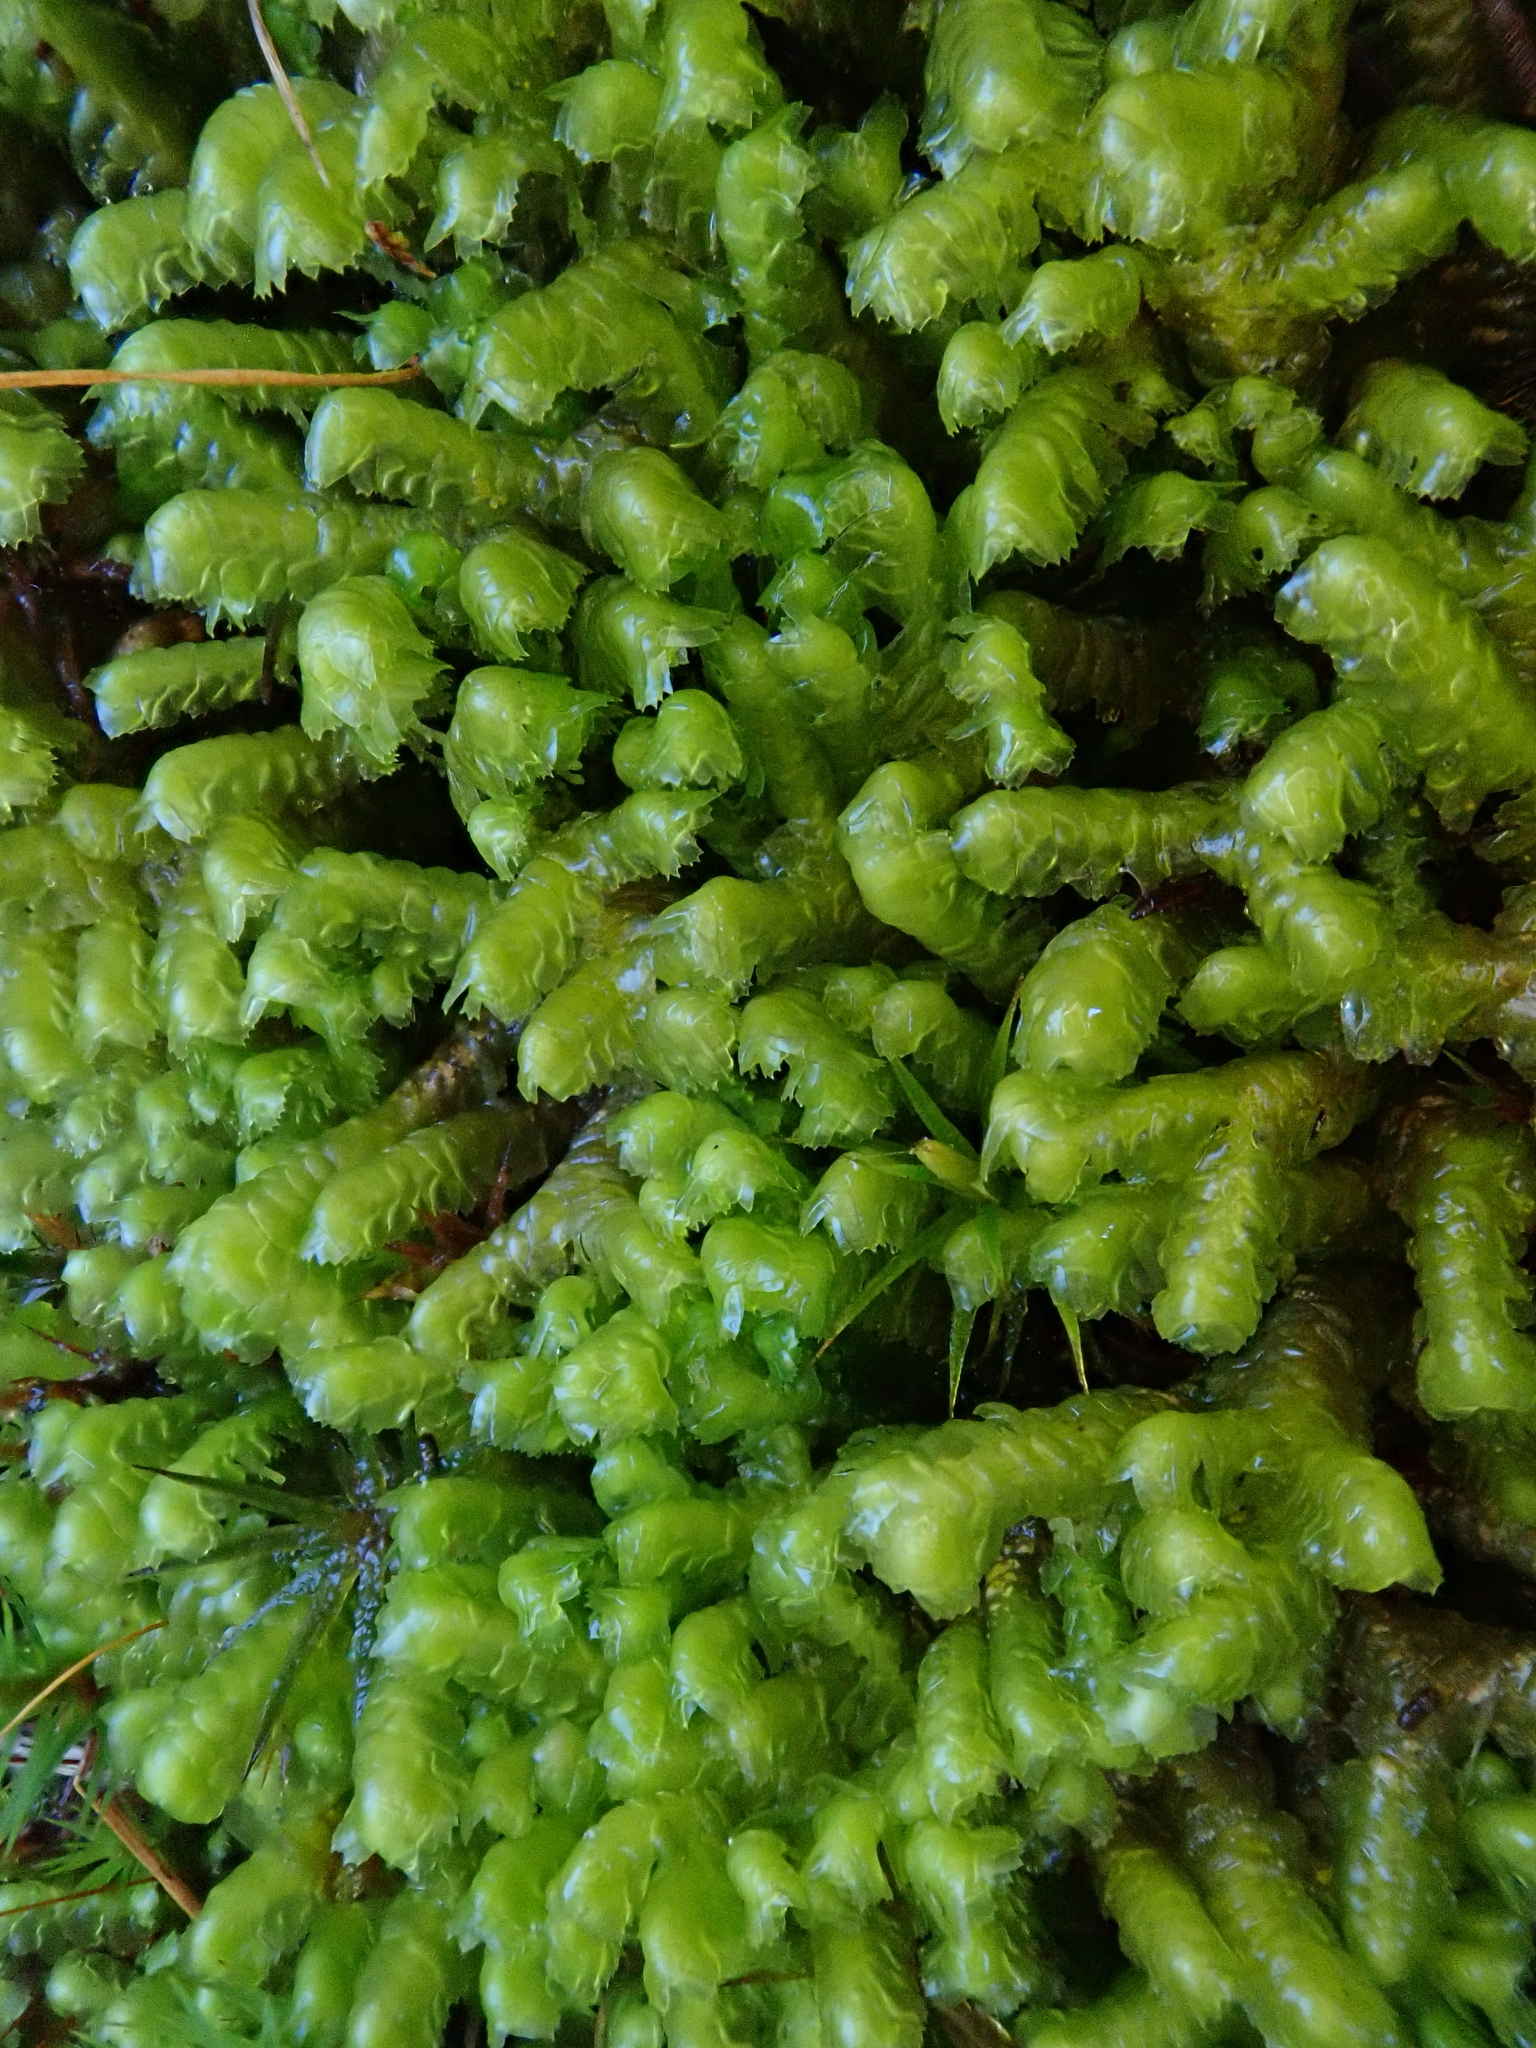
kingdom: Plantae
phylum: Marchantiophyta
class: Jungermanniopsida
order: Jungermanniales
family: Lepidoziaceae
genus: Bazzania
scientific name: Bazzania trilobata
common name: Three-lobed whipwort
